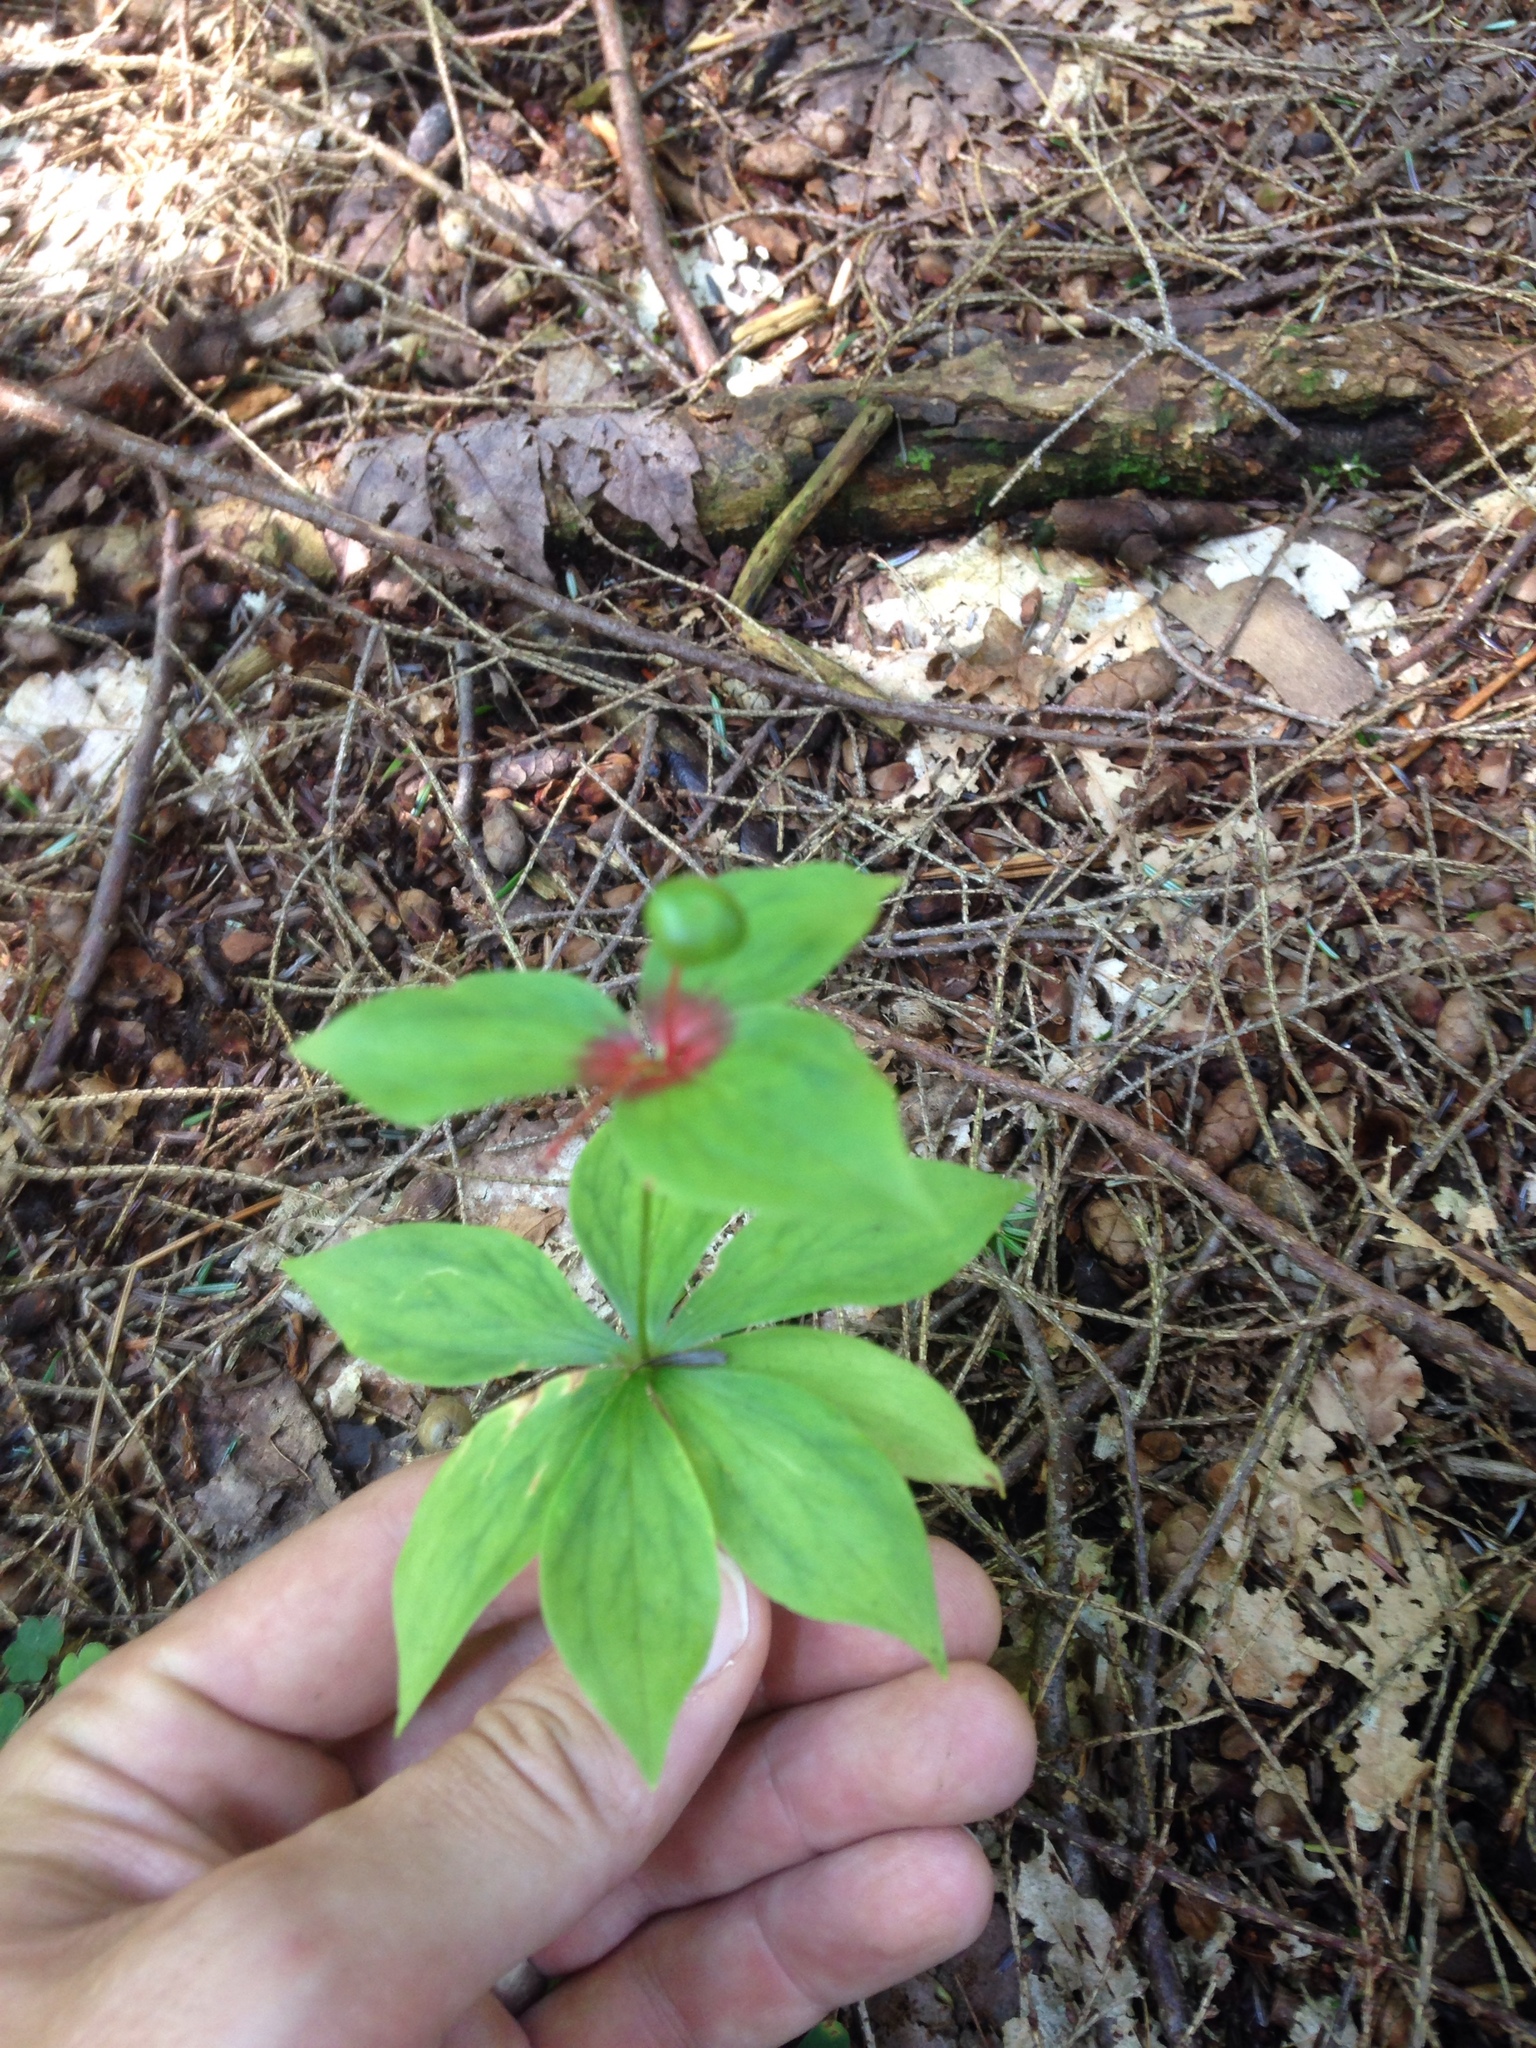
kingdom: Plantae
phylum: Tracheophyta
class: Liliopsida
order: Liliales
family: Liliaceae
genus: Medeola
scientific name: Medeola virginiana
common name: Indian cucumber-root
